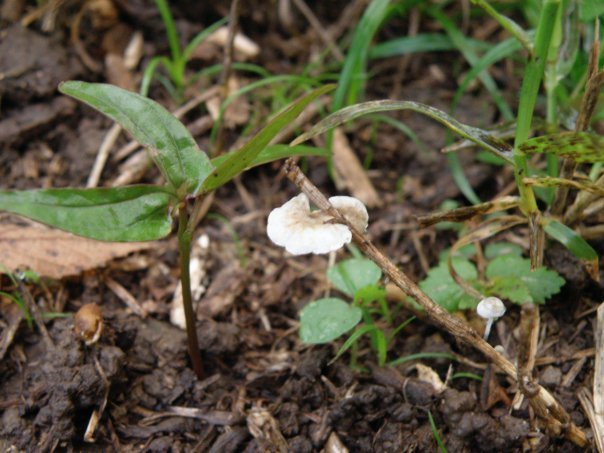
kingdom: Fungi
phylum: Basidiomycota
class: Agaricomycetes
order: Agaricales
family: Marasmiaceae
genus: Tetrapyrgos
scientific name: Tetrapyrgos nigripes
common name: Black-stalked marasmius
